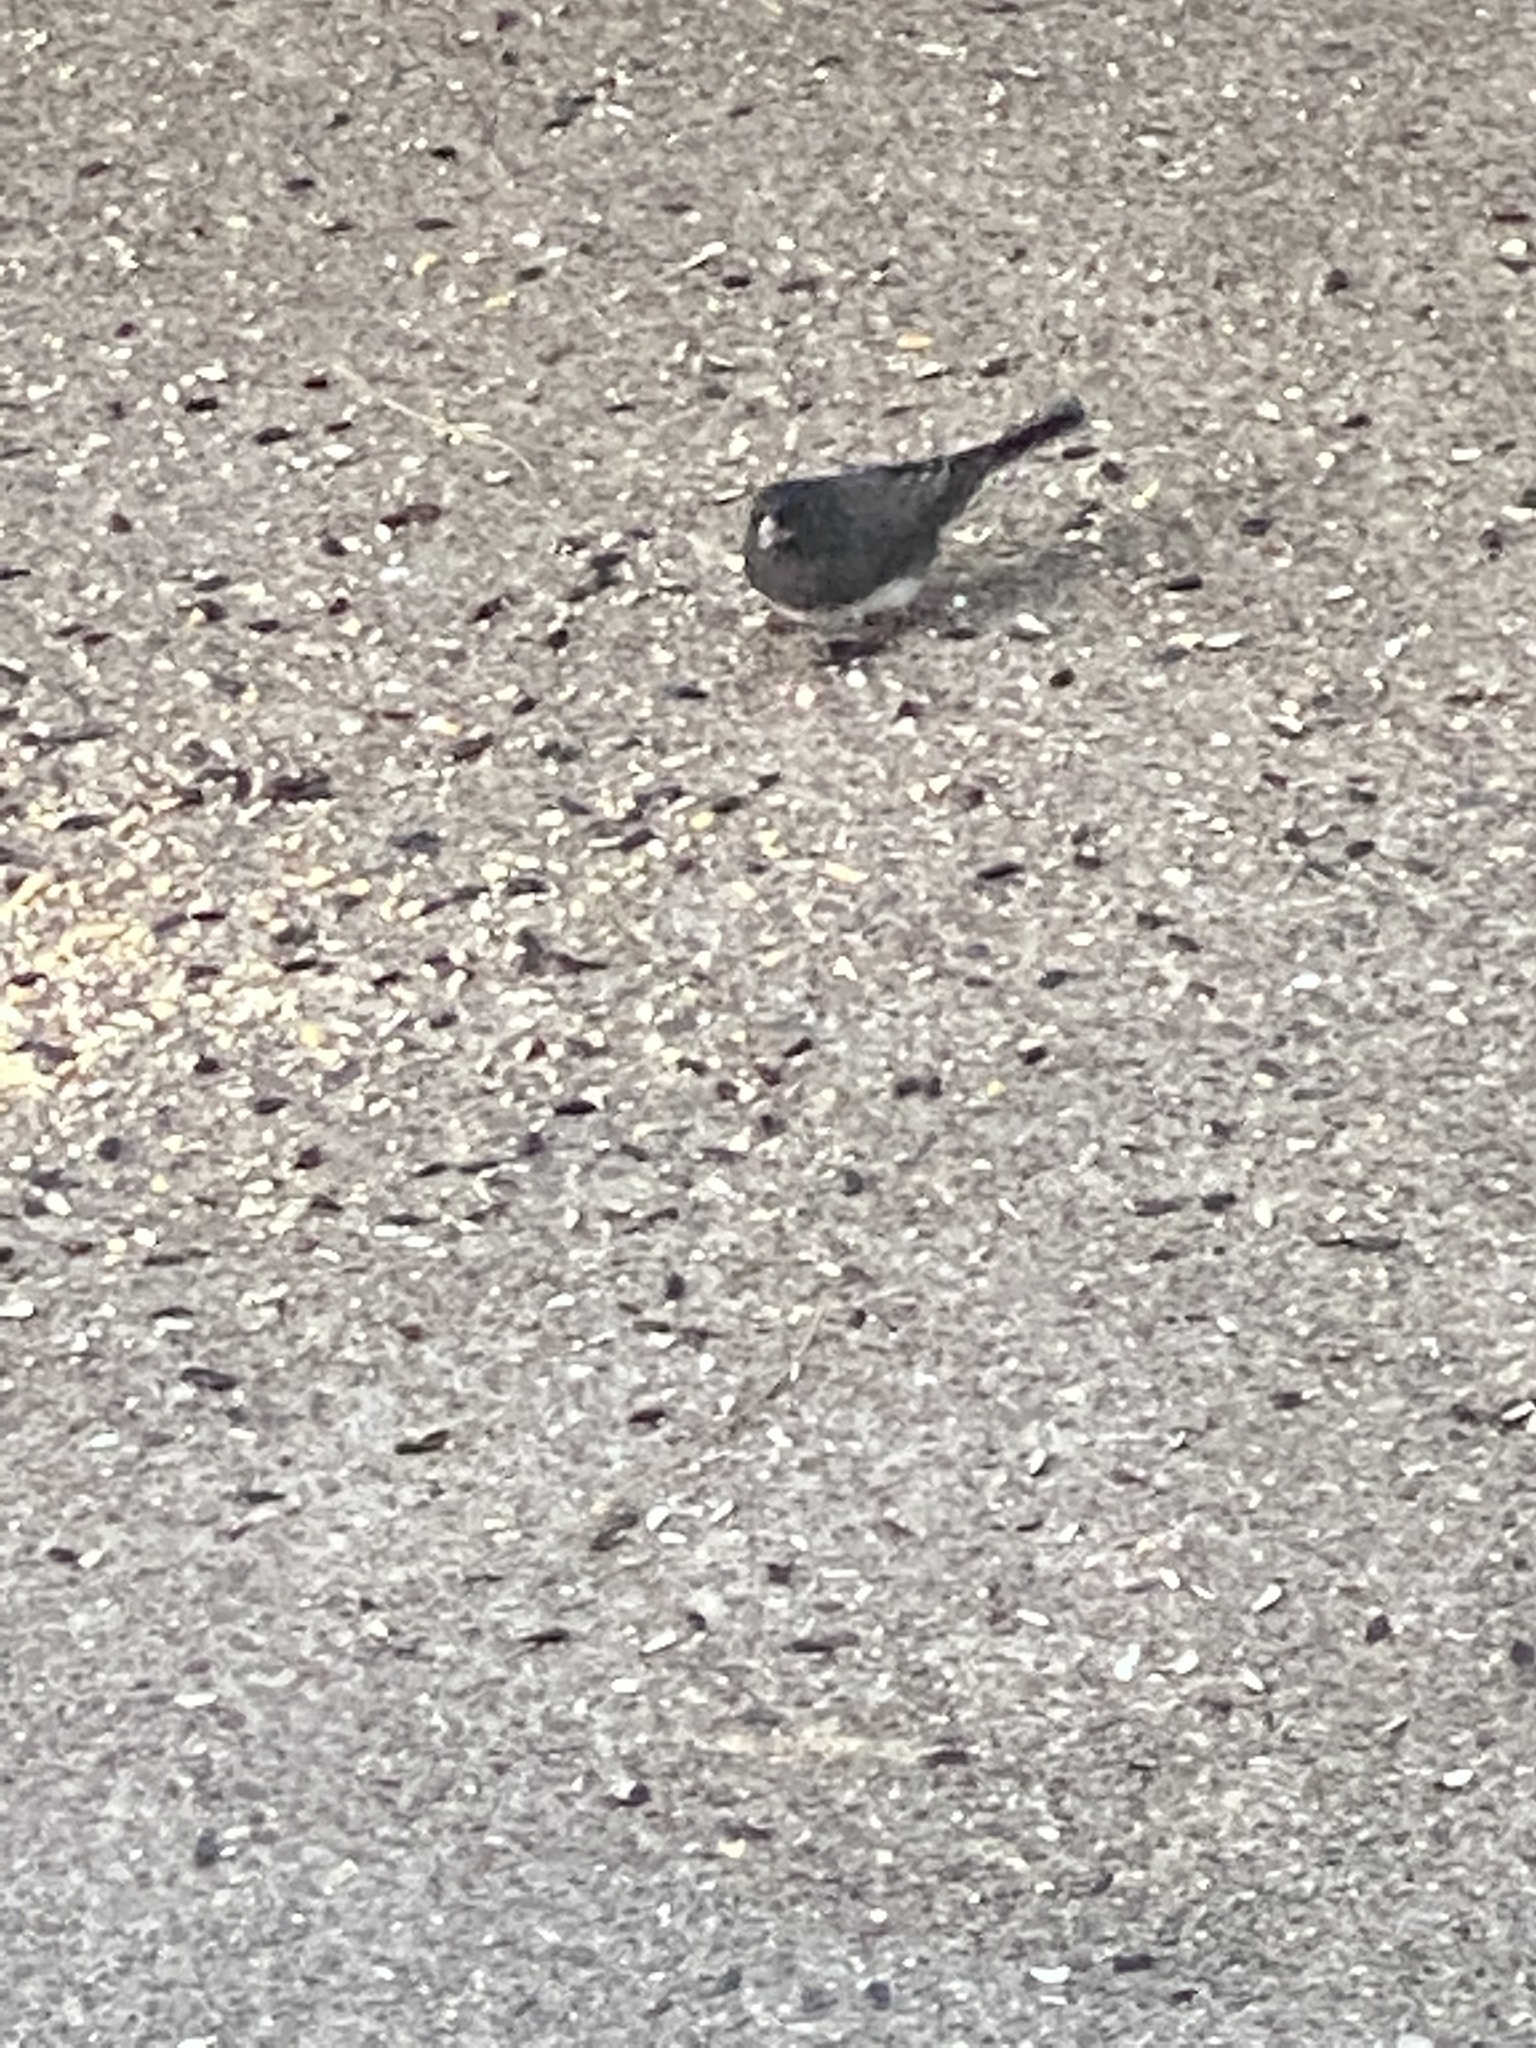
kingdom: Animalia
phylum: Chordata
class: Aves
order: Passeriformes
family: Passerellidae
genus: Junco
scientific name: Junco hyemalis
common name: Dark-eyed junco
